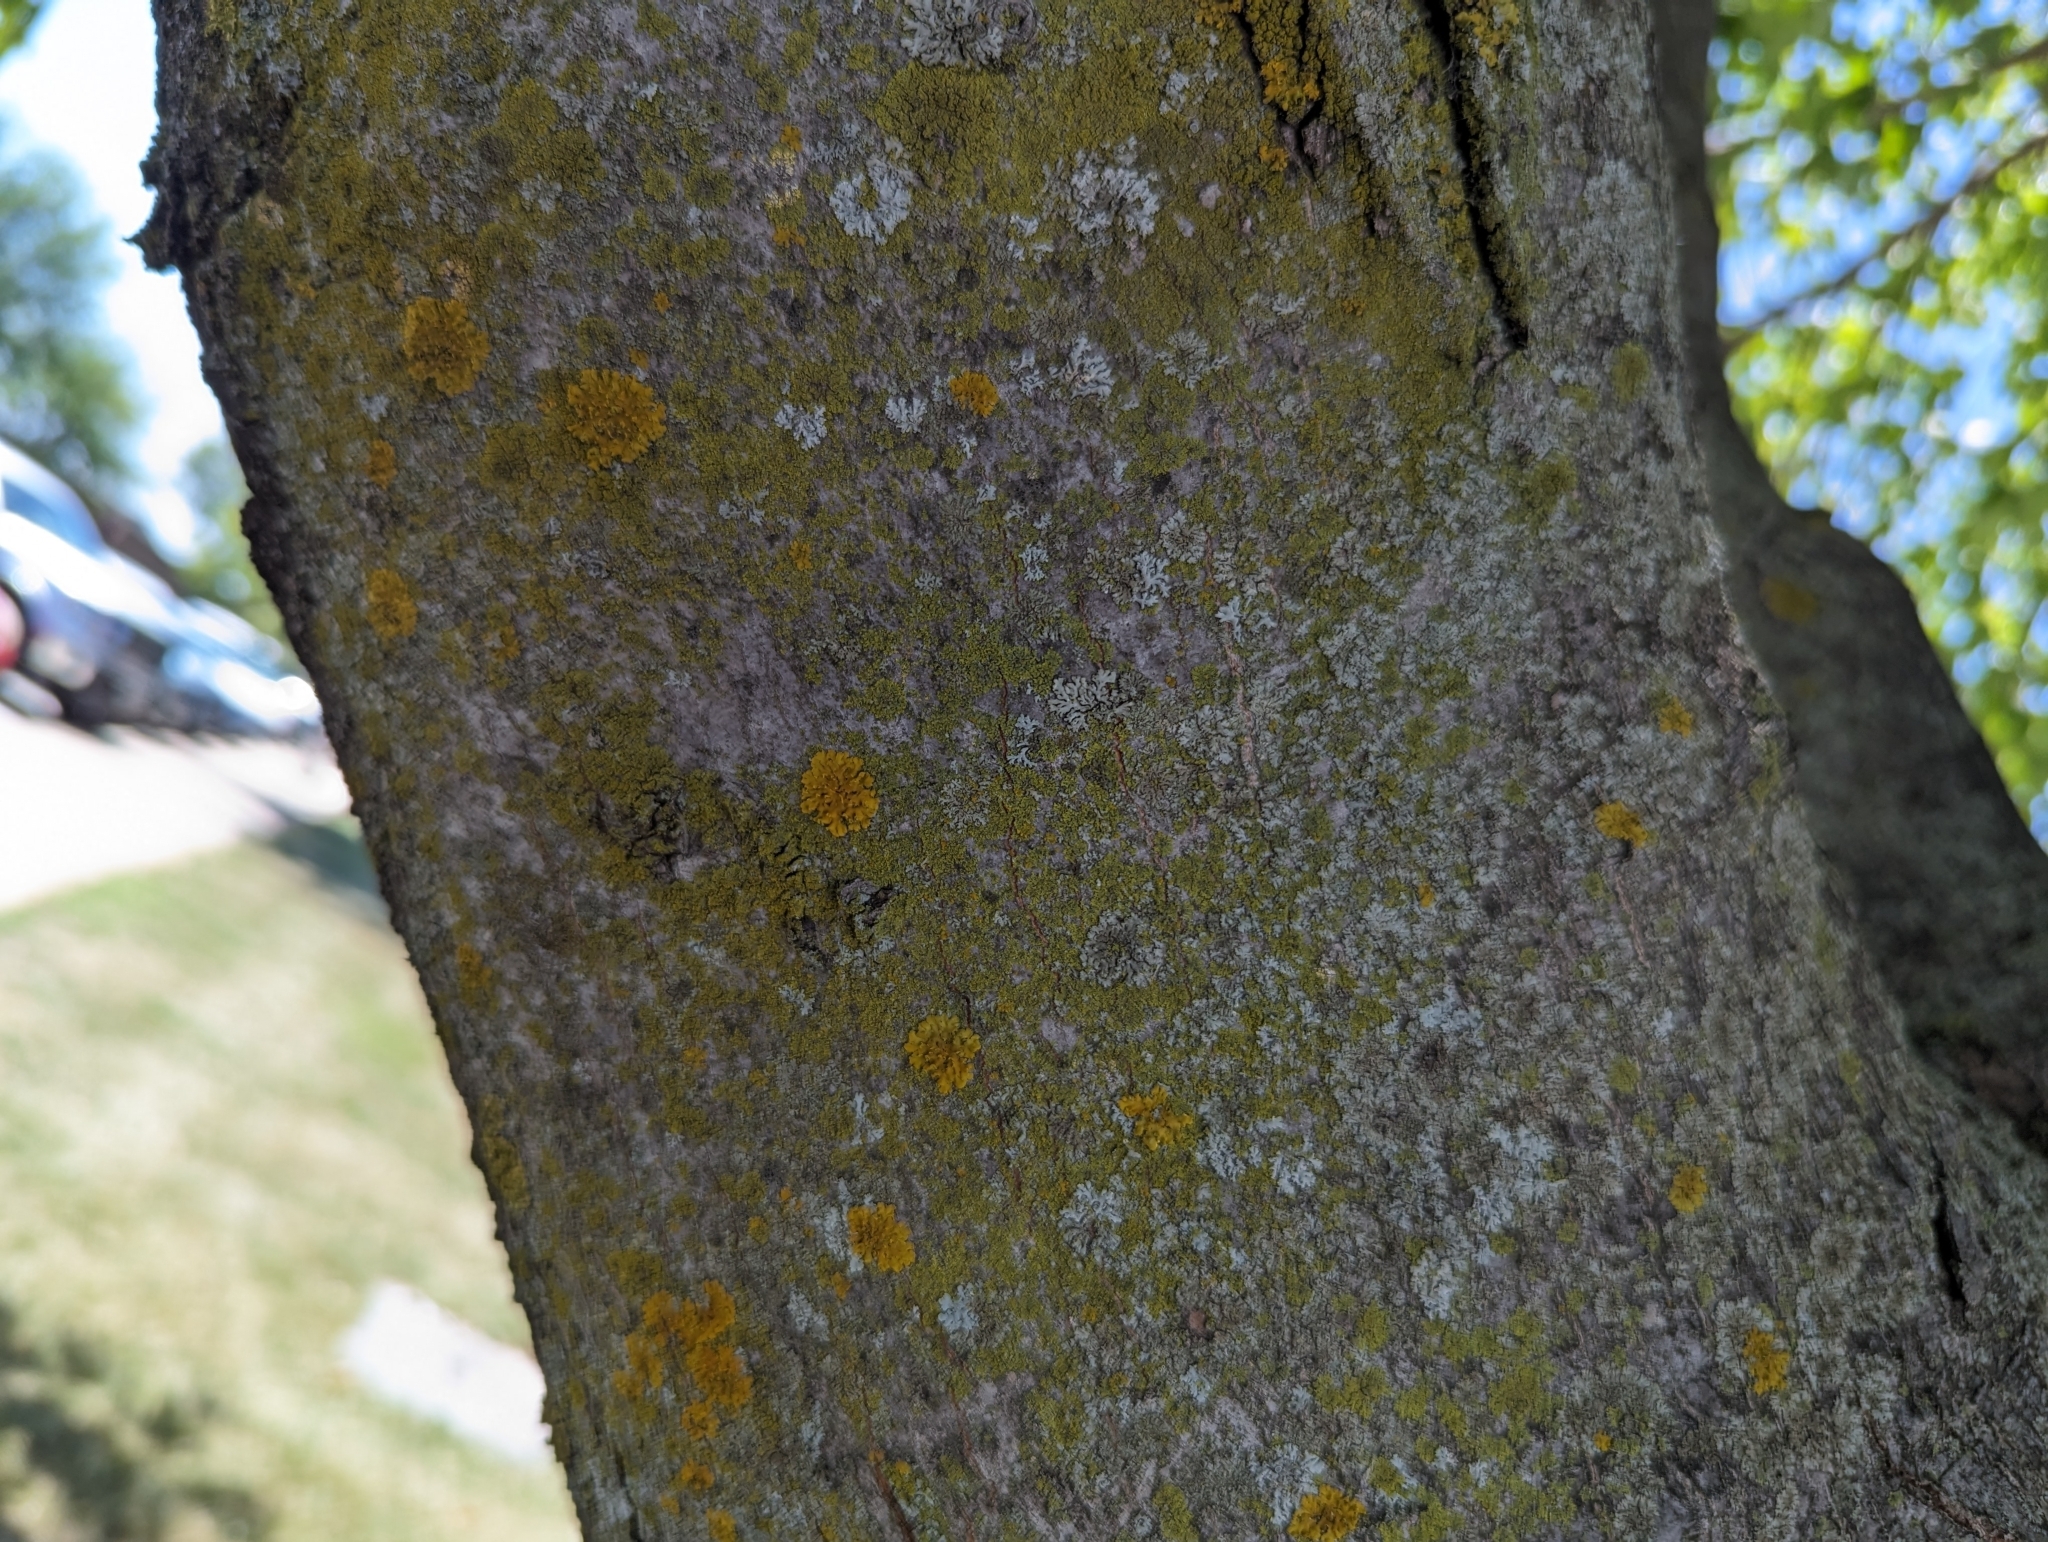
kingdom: Fungi
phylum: Ascomycota
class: Lecanoromycetes
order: Teloschistales
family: Teloschistaceae
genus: Oxneria
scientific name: Oxneria fallax
